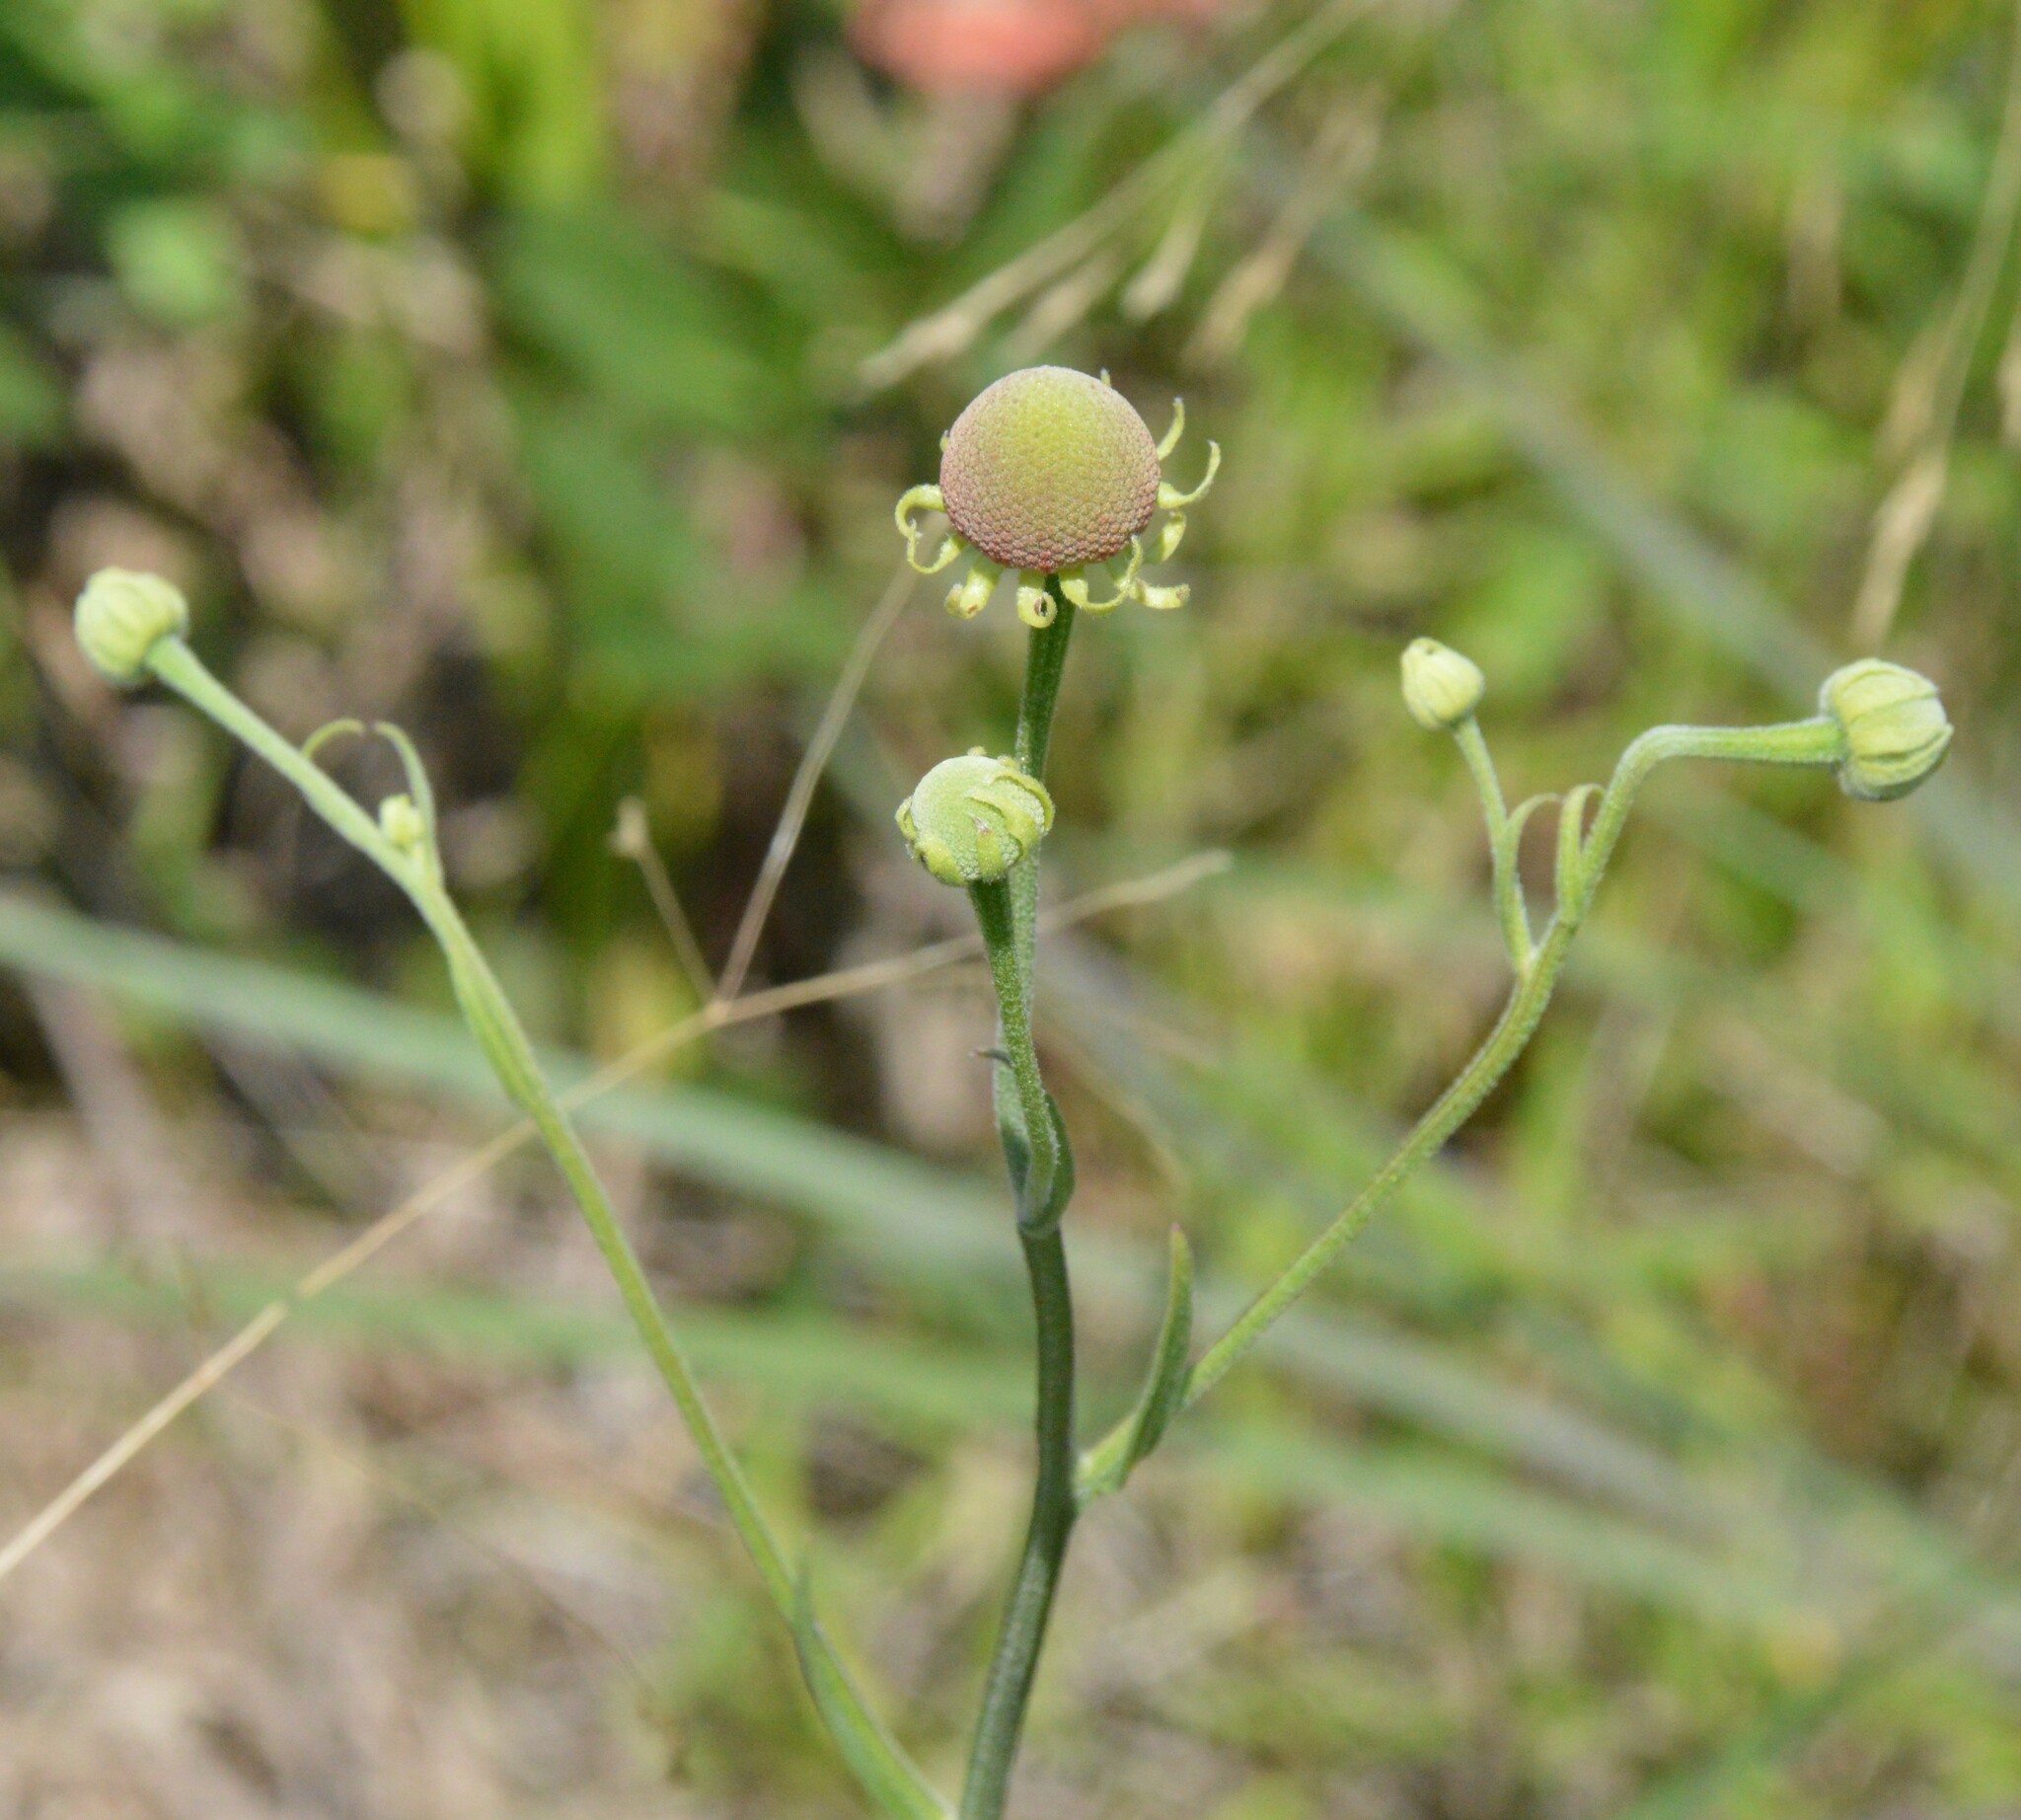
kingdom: Plantae
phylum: Tracheophyta
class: Magnoliopsida
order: Asterales
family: Asteraceae
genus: Helenium
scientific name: Helenium flexuosum
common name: Naked-flowered sneezeweed
